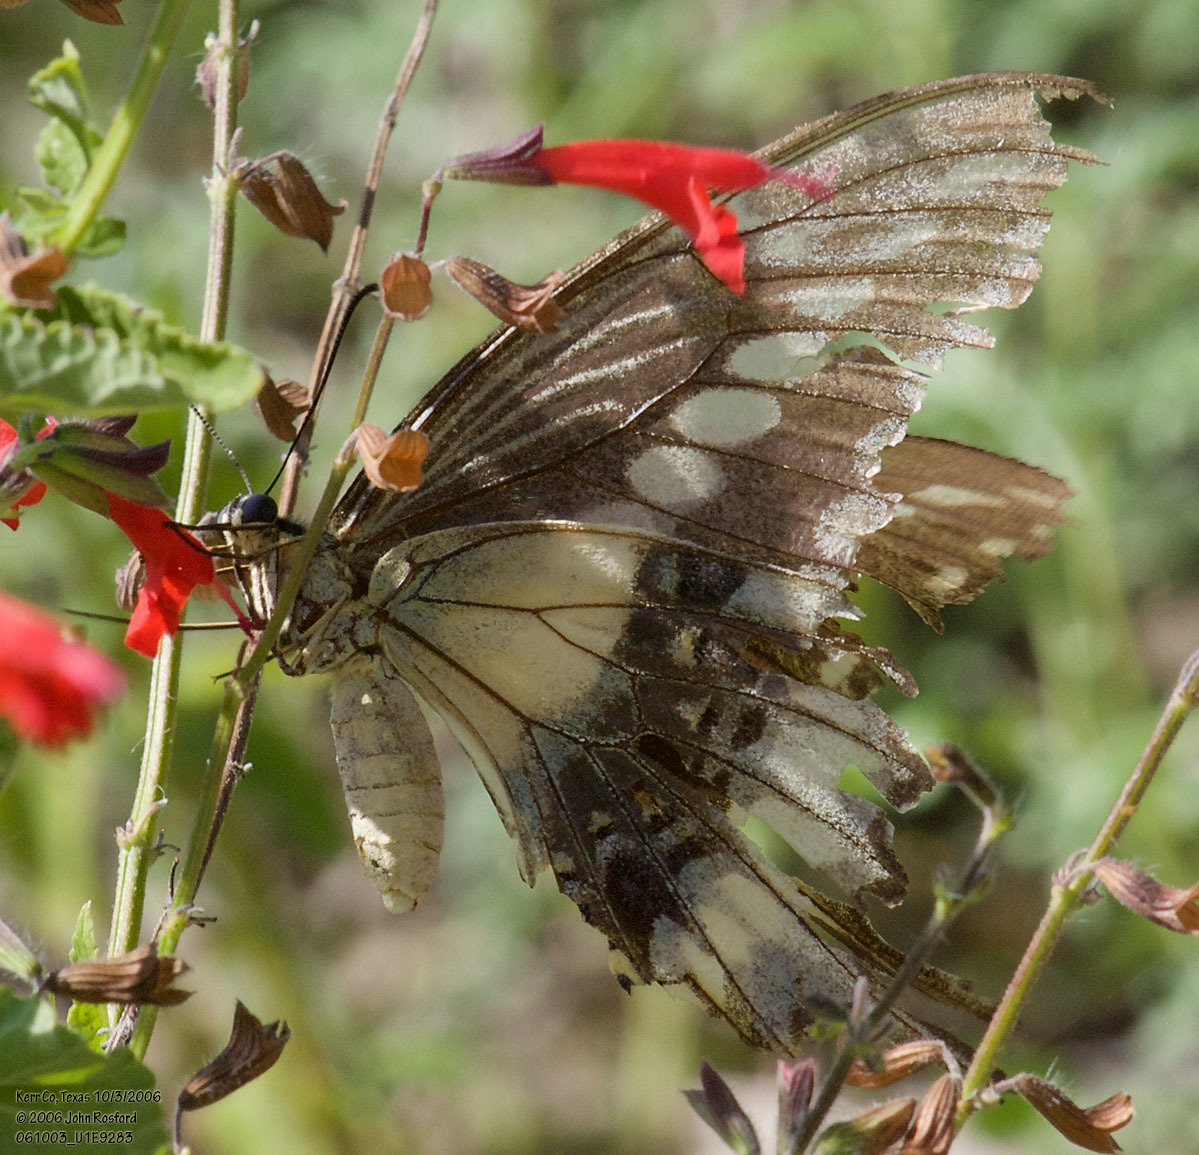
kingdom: Animalia
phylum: Arthropoda
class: Insecta
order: Lepidoptera
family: Papilionidae
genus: Papilio
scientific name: Papilio ornythion
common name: Ornythion swallowtail
